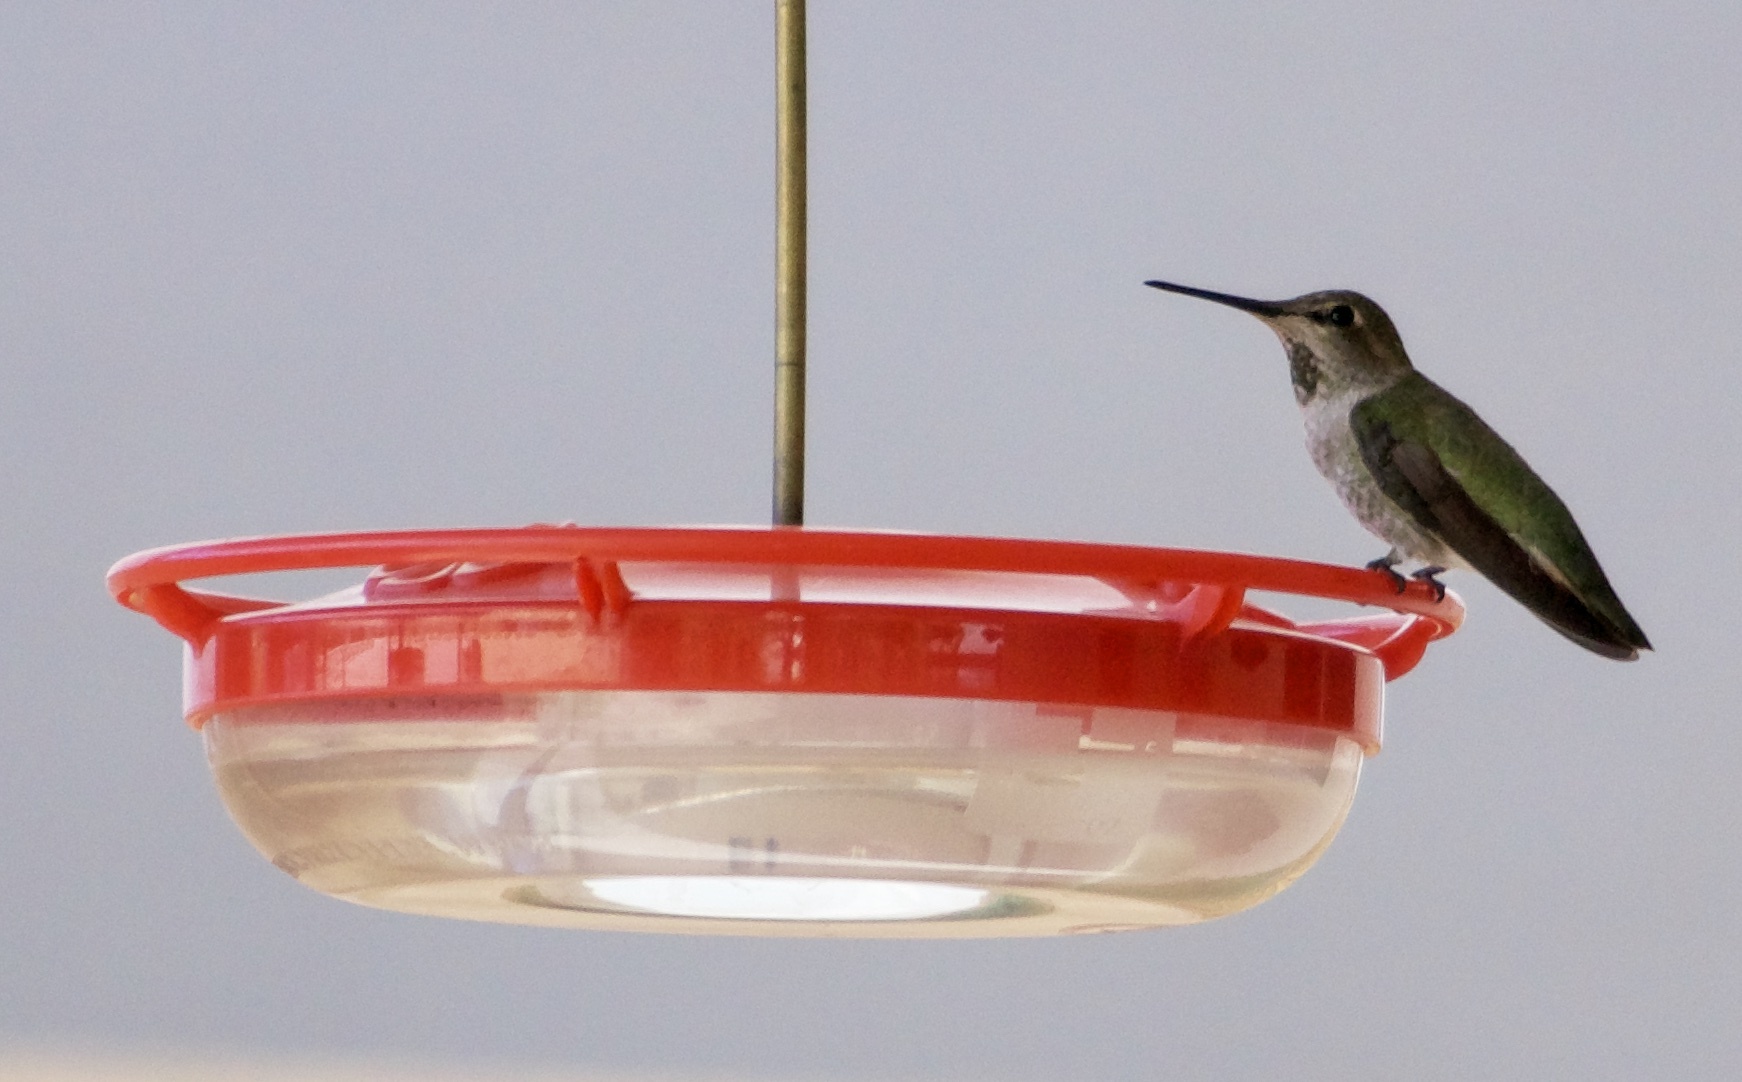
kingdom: Animalia
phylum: Chordata
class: Aves
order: Apodiformes
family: Trochilidae
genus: Calypte
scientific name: Calypte anna
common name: Anna's hummingbird
